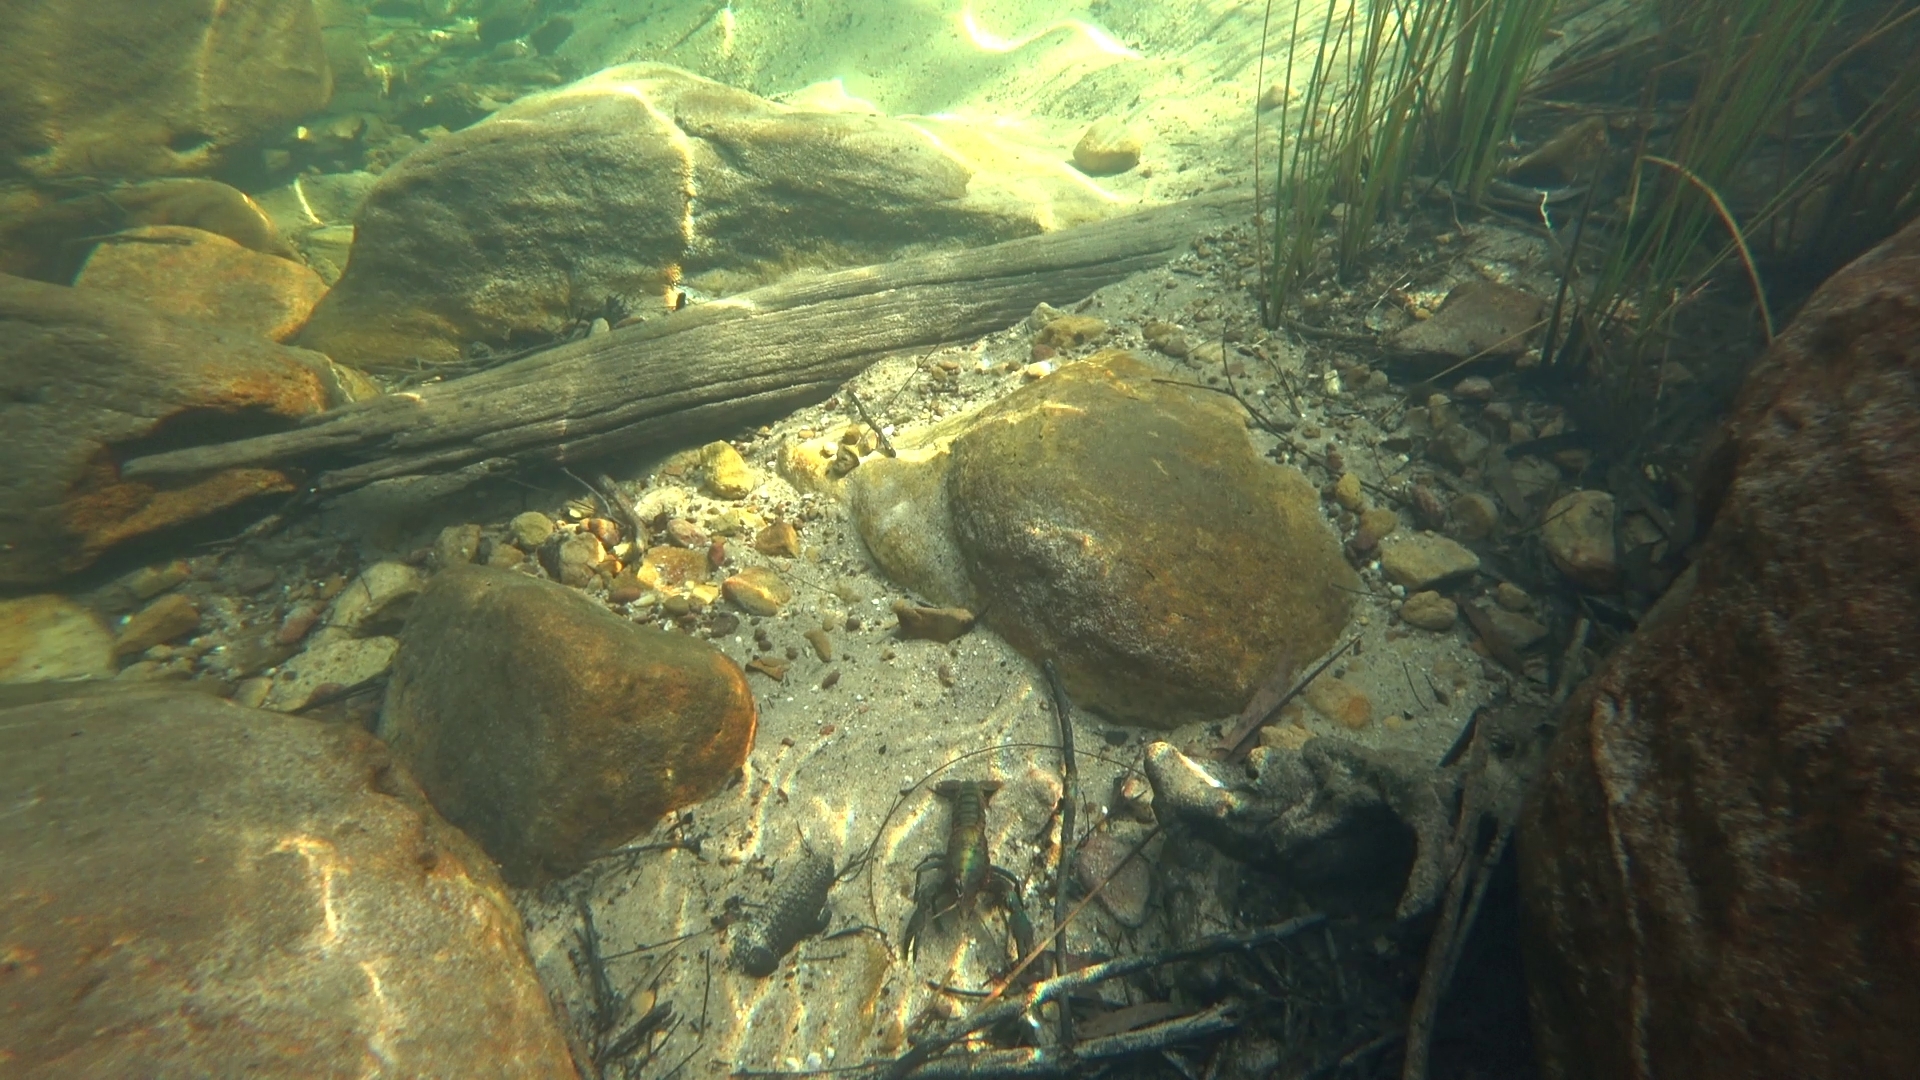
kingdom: Animalia
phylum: Arthropoda
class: Malacostraca
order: Decapoda
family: Parastacidae
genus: Euastacus
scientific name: Euastacus spinifer
